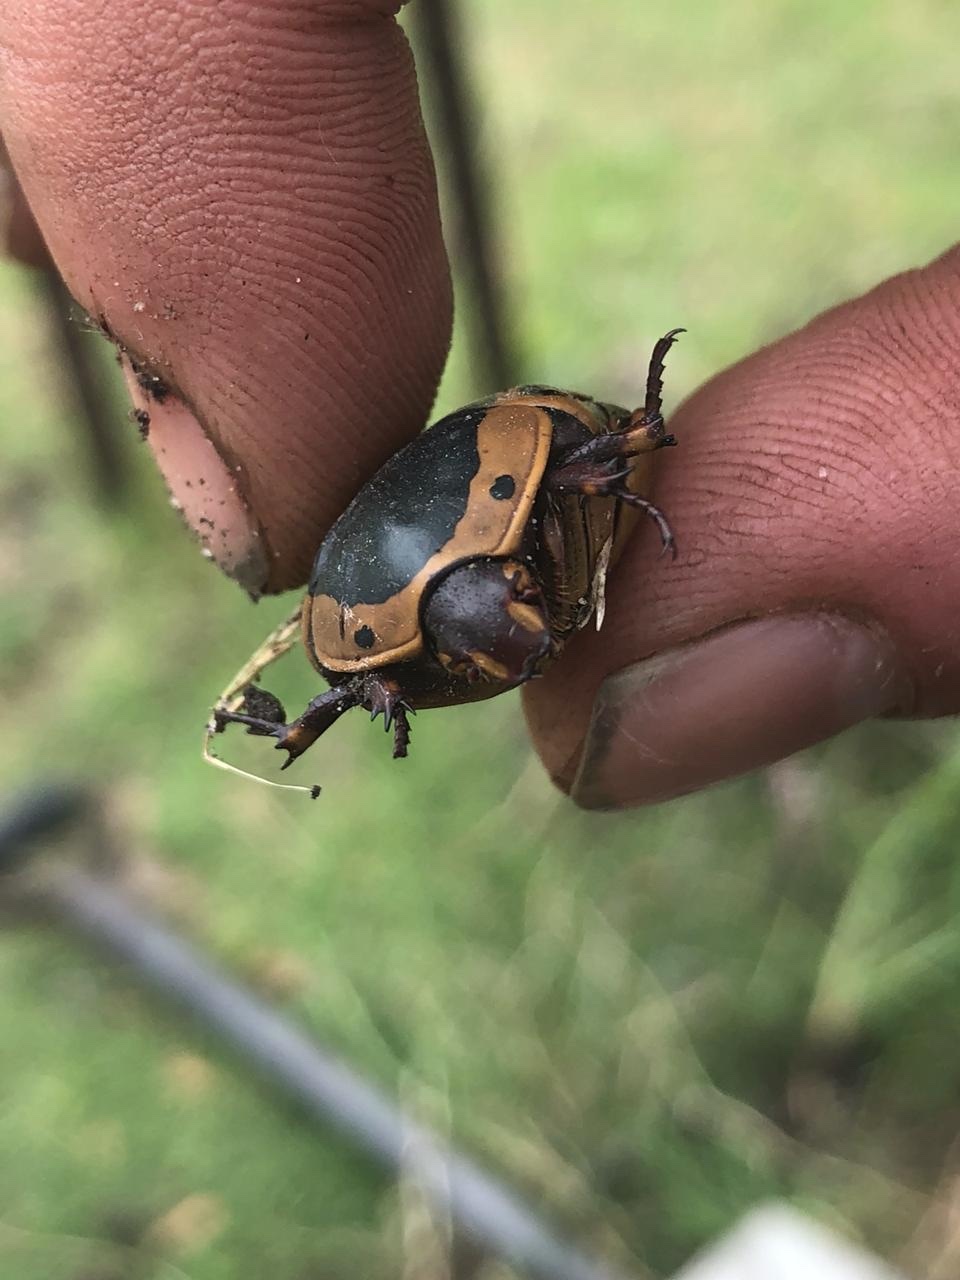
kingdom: Animalia
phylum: Arthropoda
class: Insecta
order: Coleoptera
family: Scarabaeidae
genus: Pachnoda
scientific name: Pachnoda sinuata
